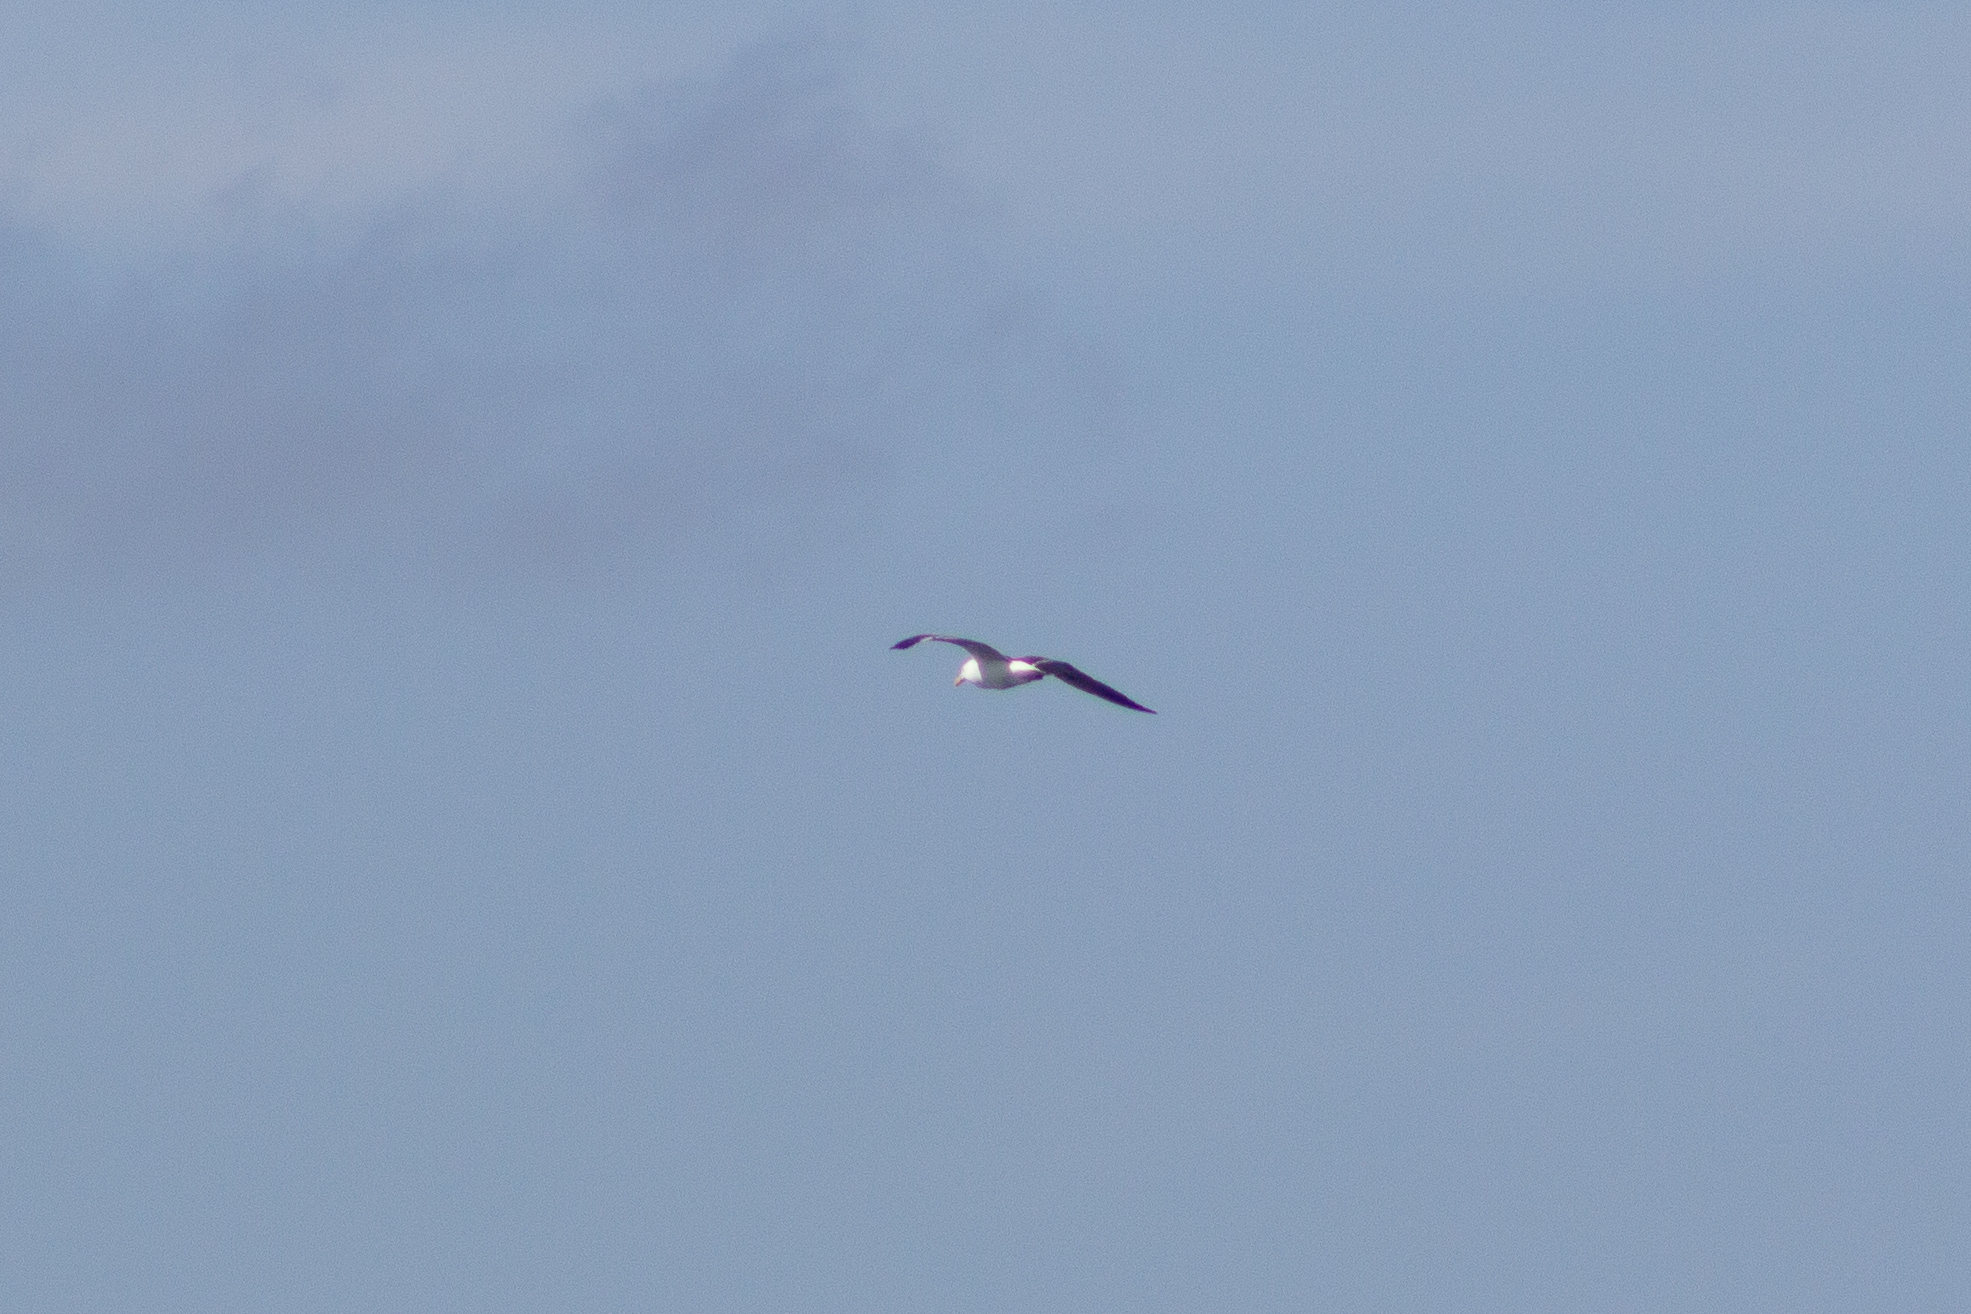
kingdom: Animalia
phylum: Chordata
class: Aves
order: Charadriiformes
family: Laridae
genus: Larus
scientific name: Larus dominicanus
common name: Kelp gull
